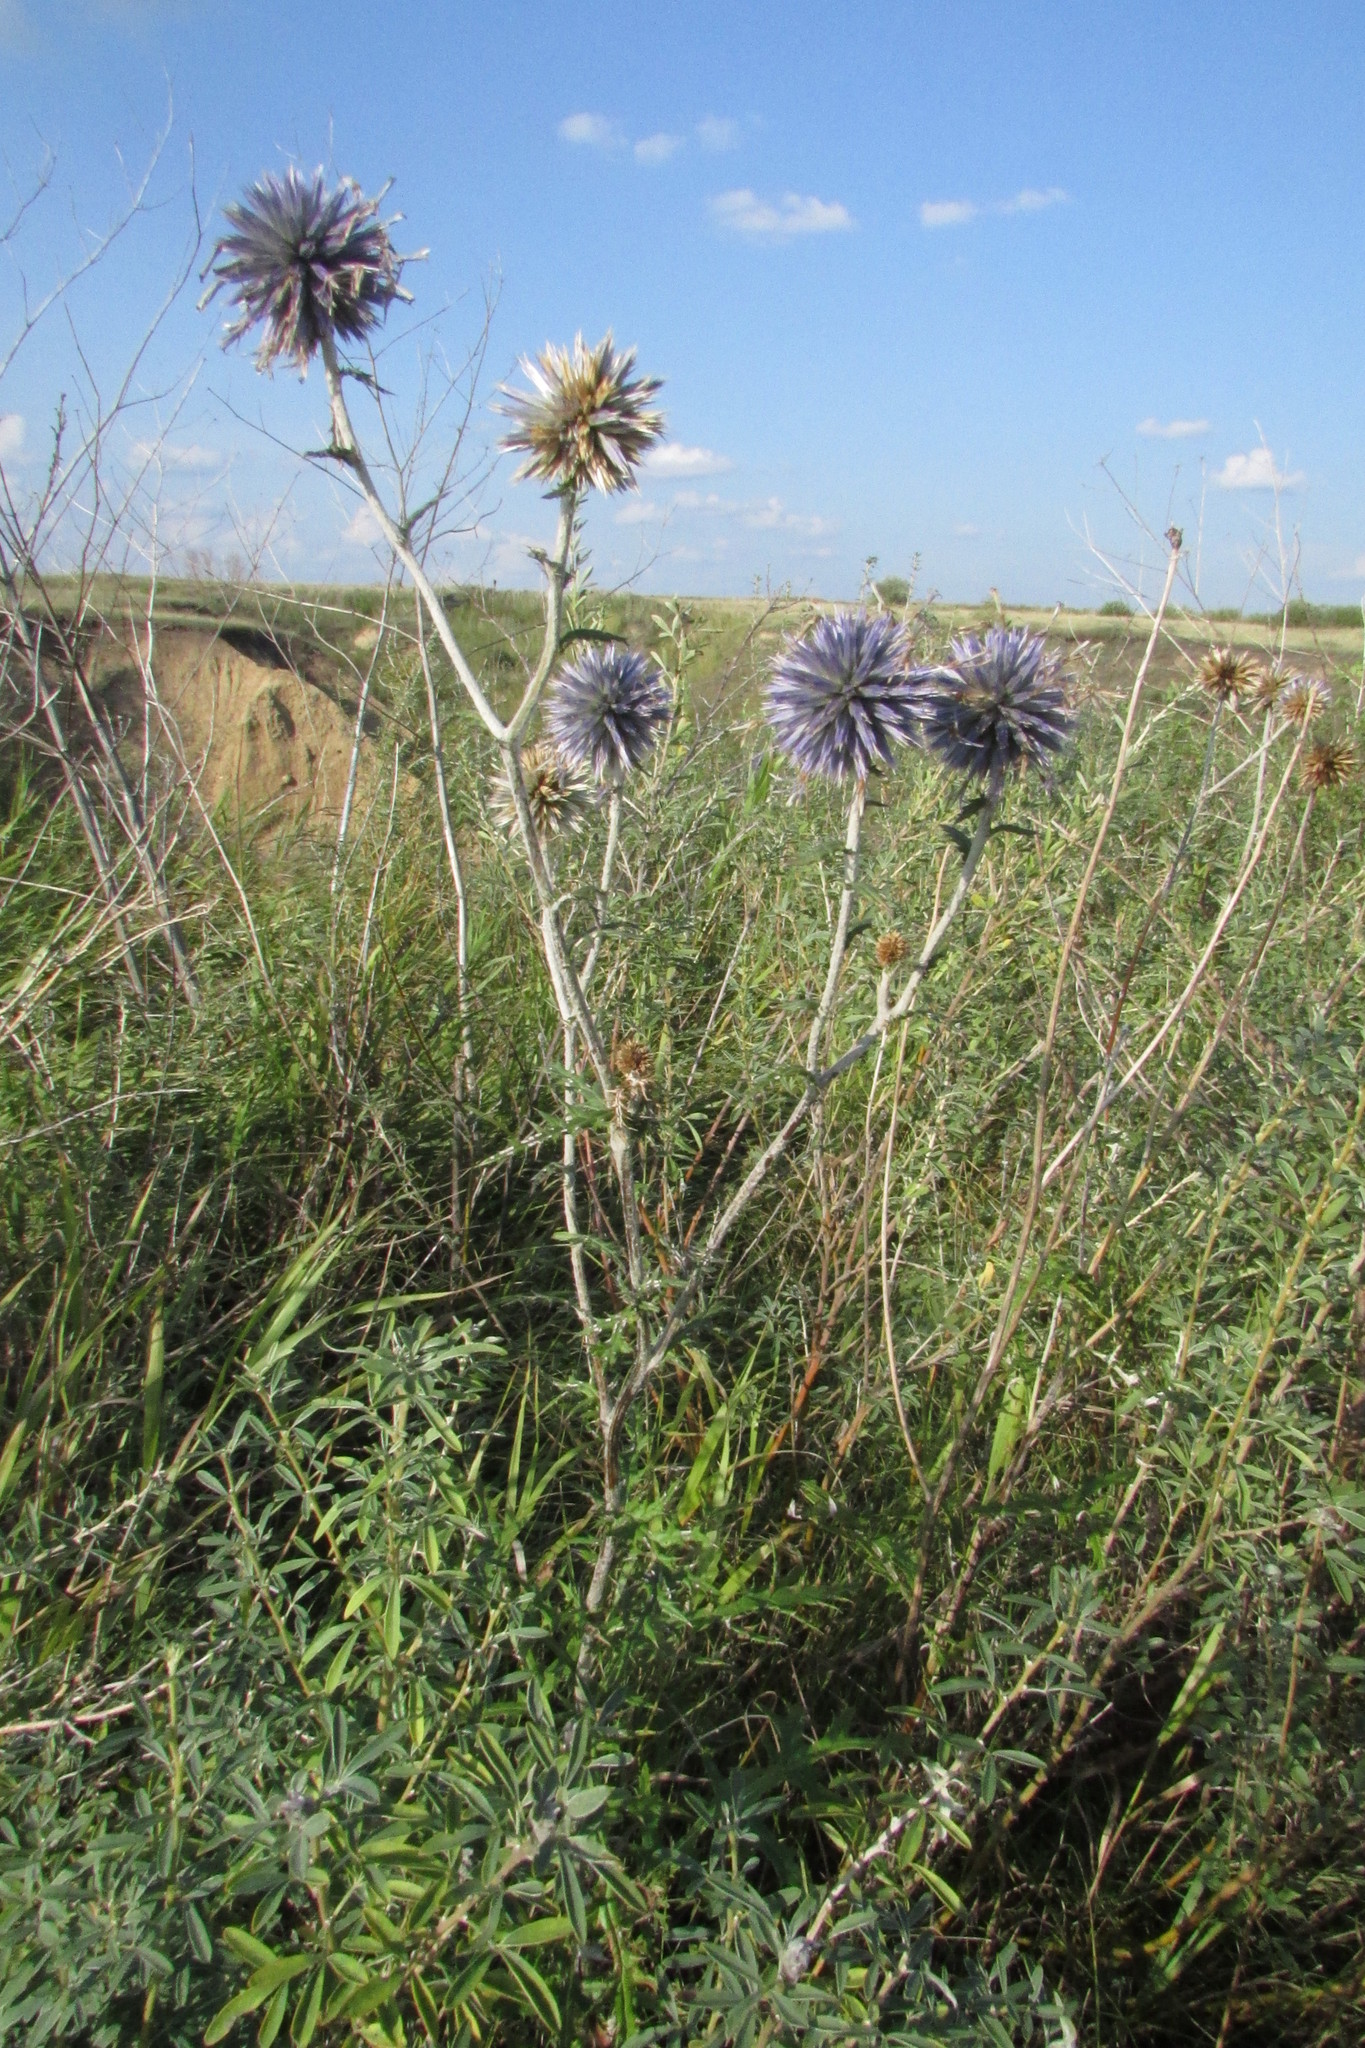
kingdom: Plantae
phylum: Tracheophyta
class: Magnoliopsida
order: Asterales
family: Asteraceae
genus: Echinops
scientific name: Echinops ritro
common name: Globe thistle
